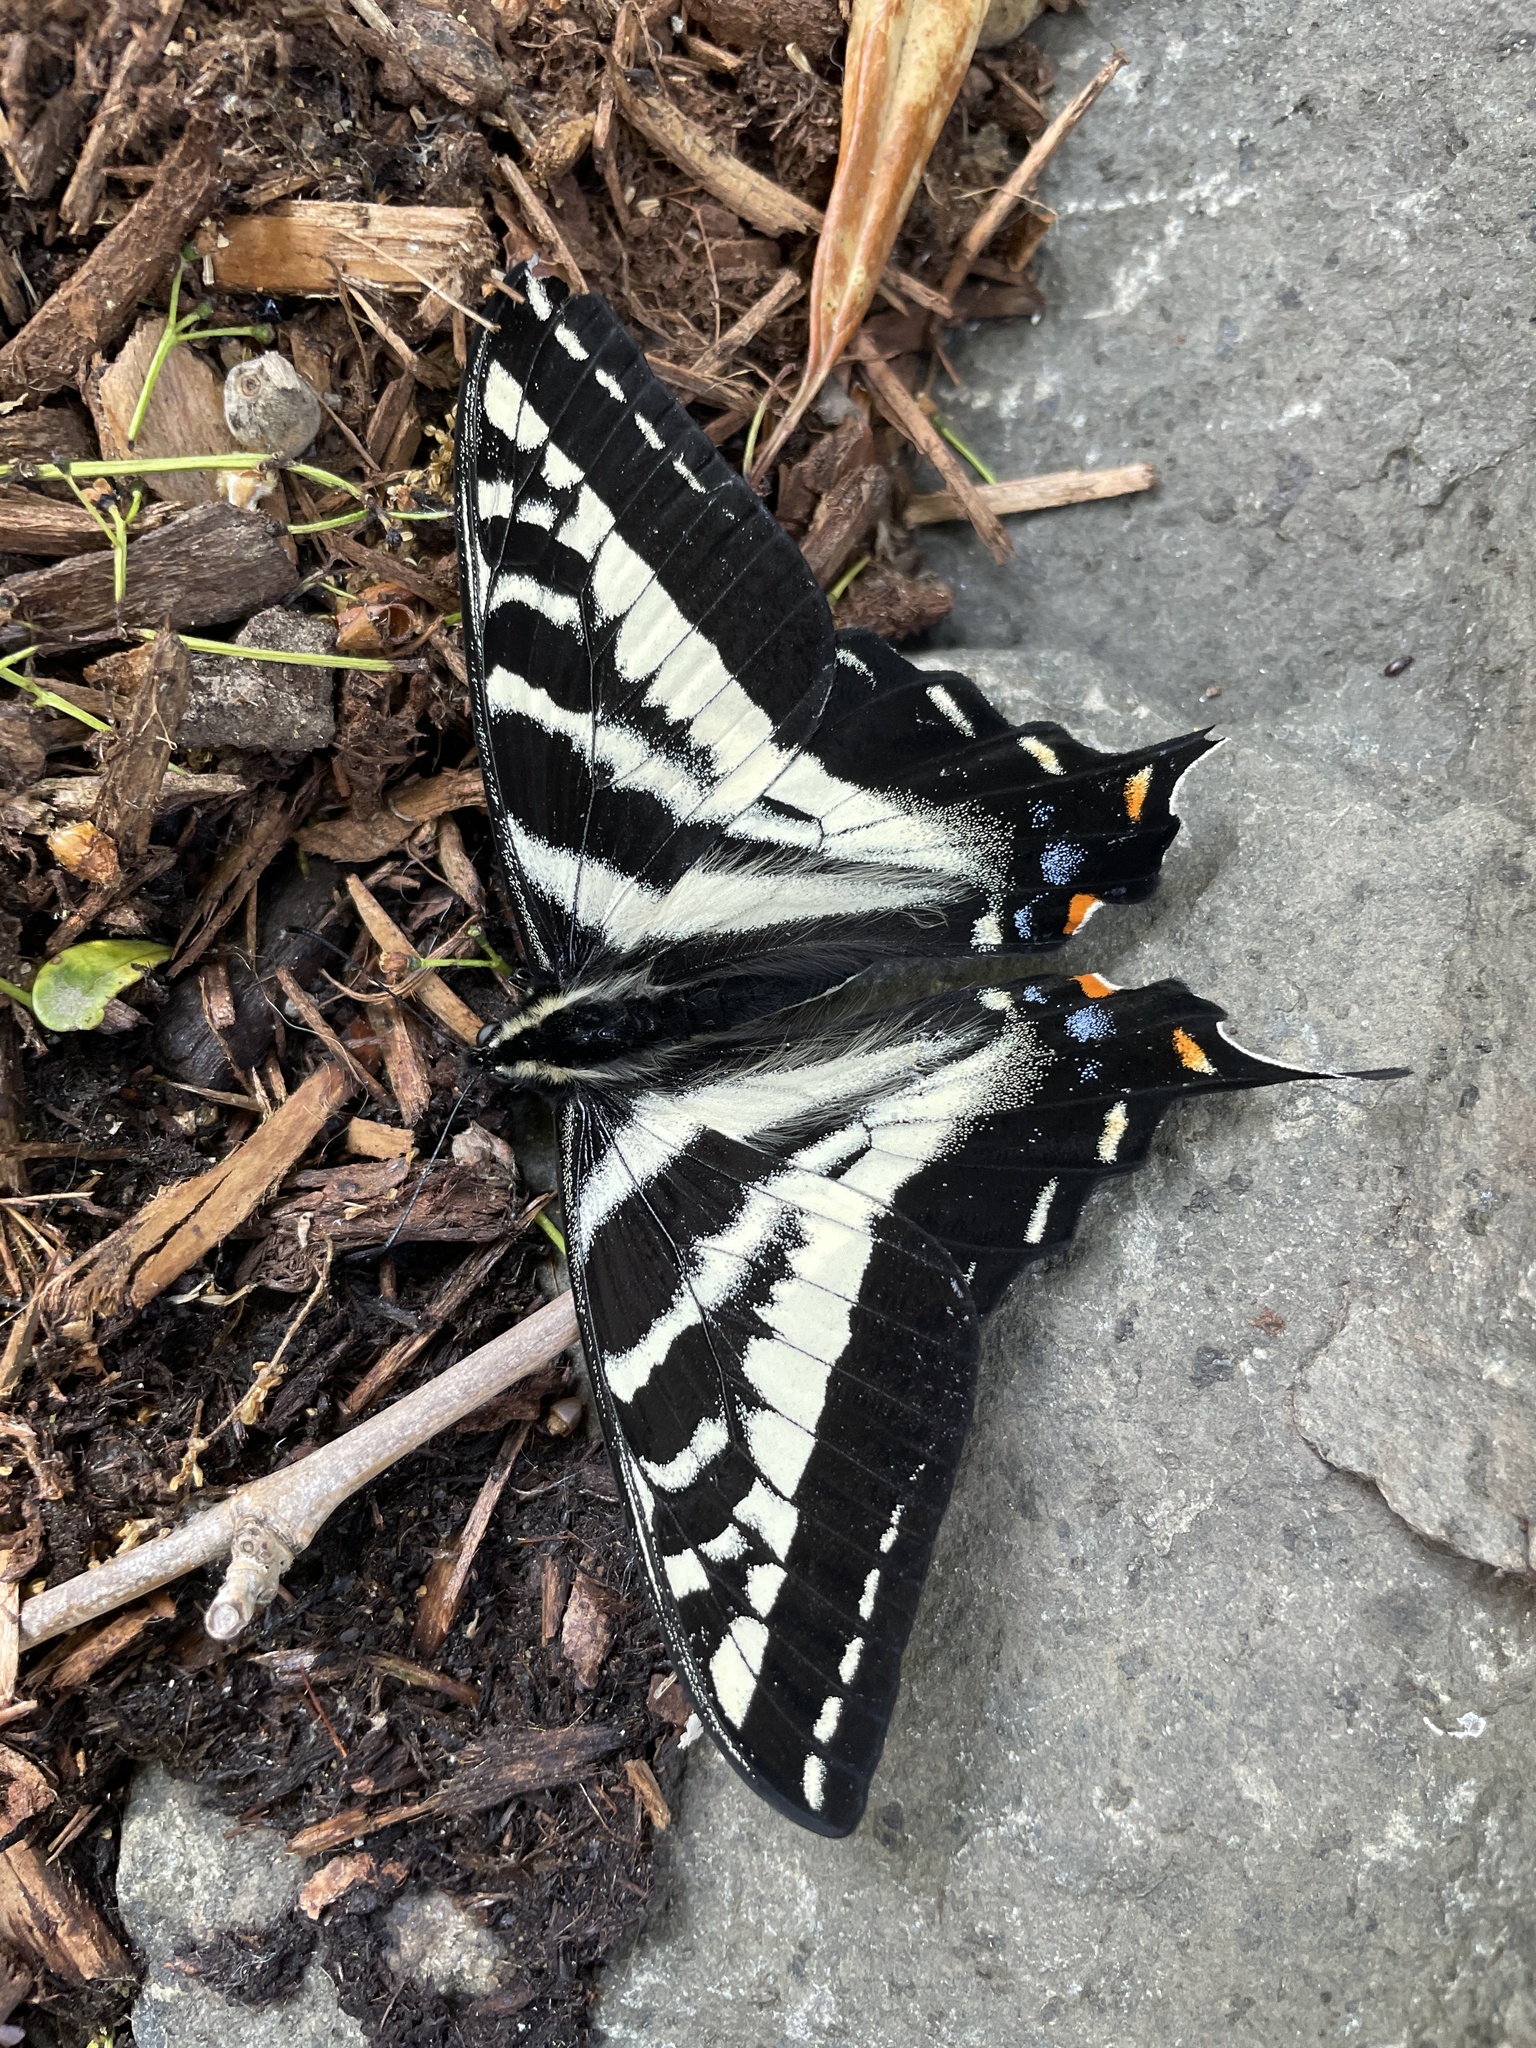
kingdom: Animalia
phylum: Arthropoda
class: Insecta
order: Lepidoptera
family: Papilionidae
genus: Papilio
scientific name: Papilio eurymedon
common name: Pale tiger swallowtail
